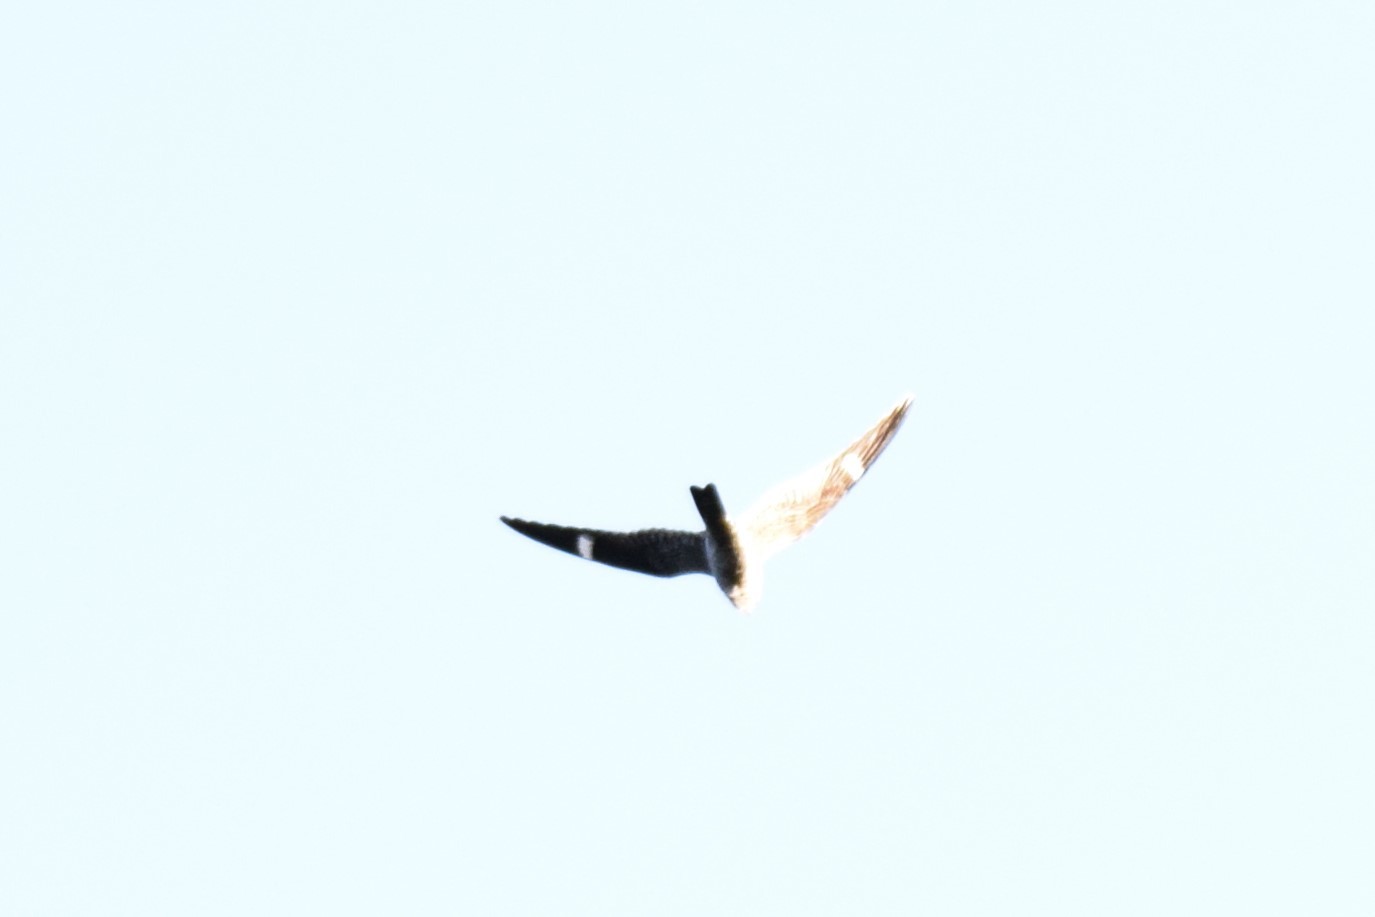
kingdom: Animalia
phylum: Chordata
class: Aves
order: Caprimulgiformes
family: Caprimulgidae
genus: Chordeiles
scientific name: Chordeiles minor
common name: Common nighthawk
